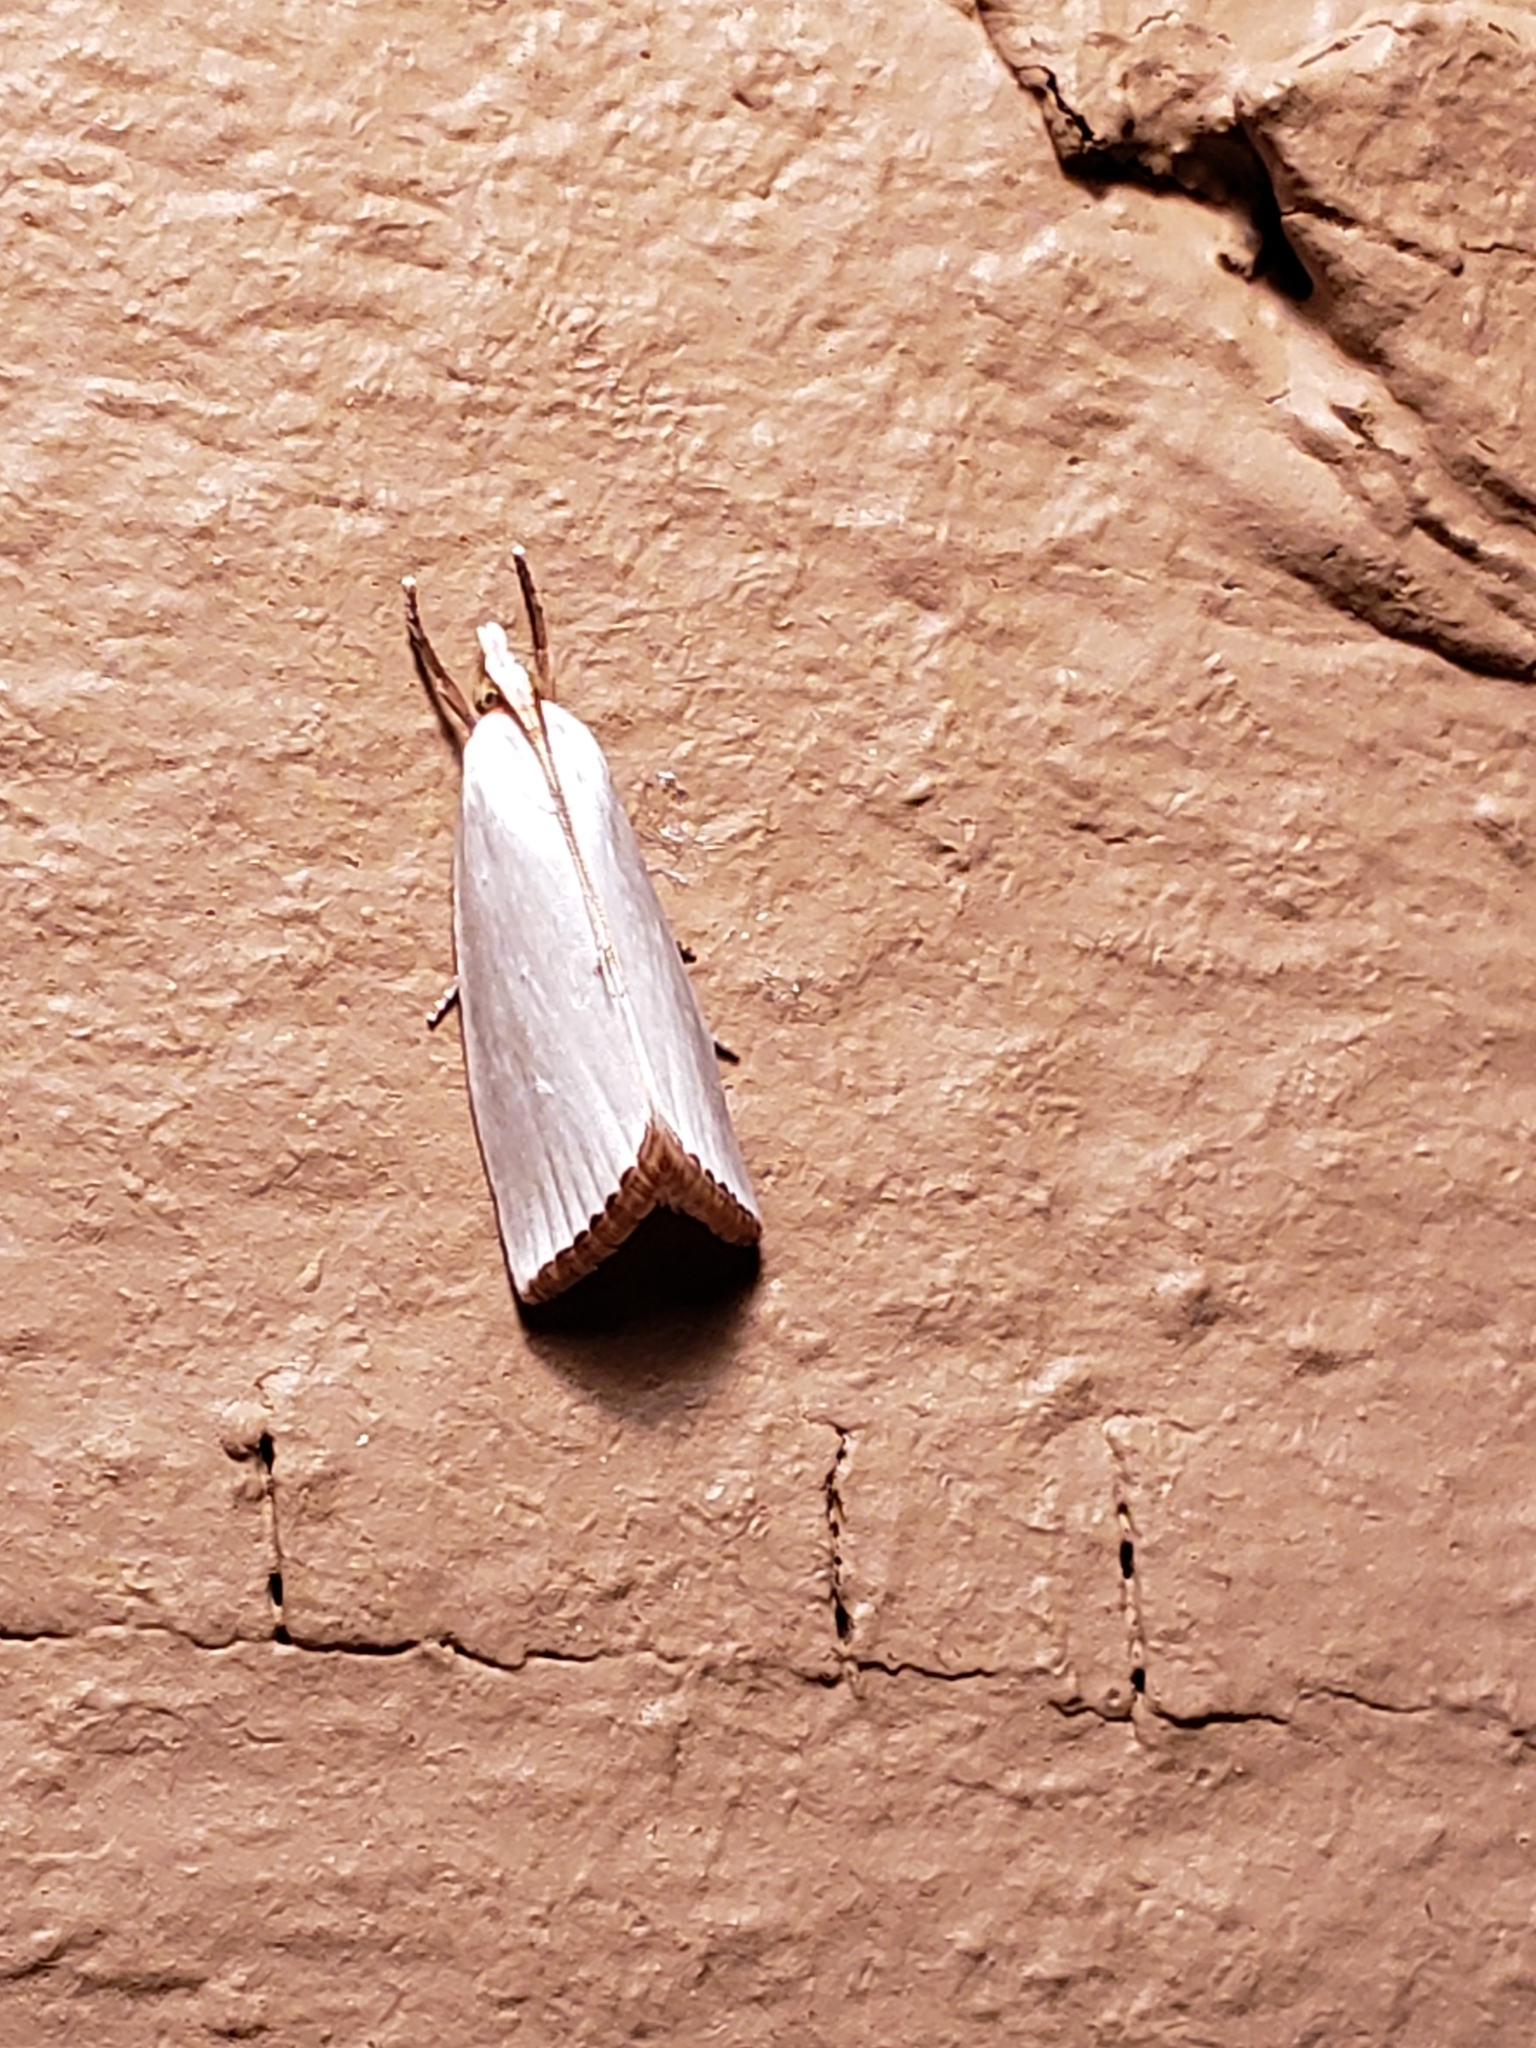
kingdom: Animalia
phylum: Arthropoda
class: Insecta
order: Lepidoptera
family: Crambidae
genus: Argyria
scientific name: Argyria nivalis
